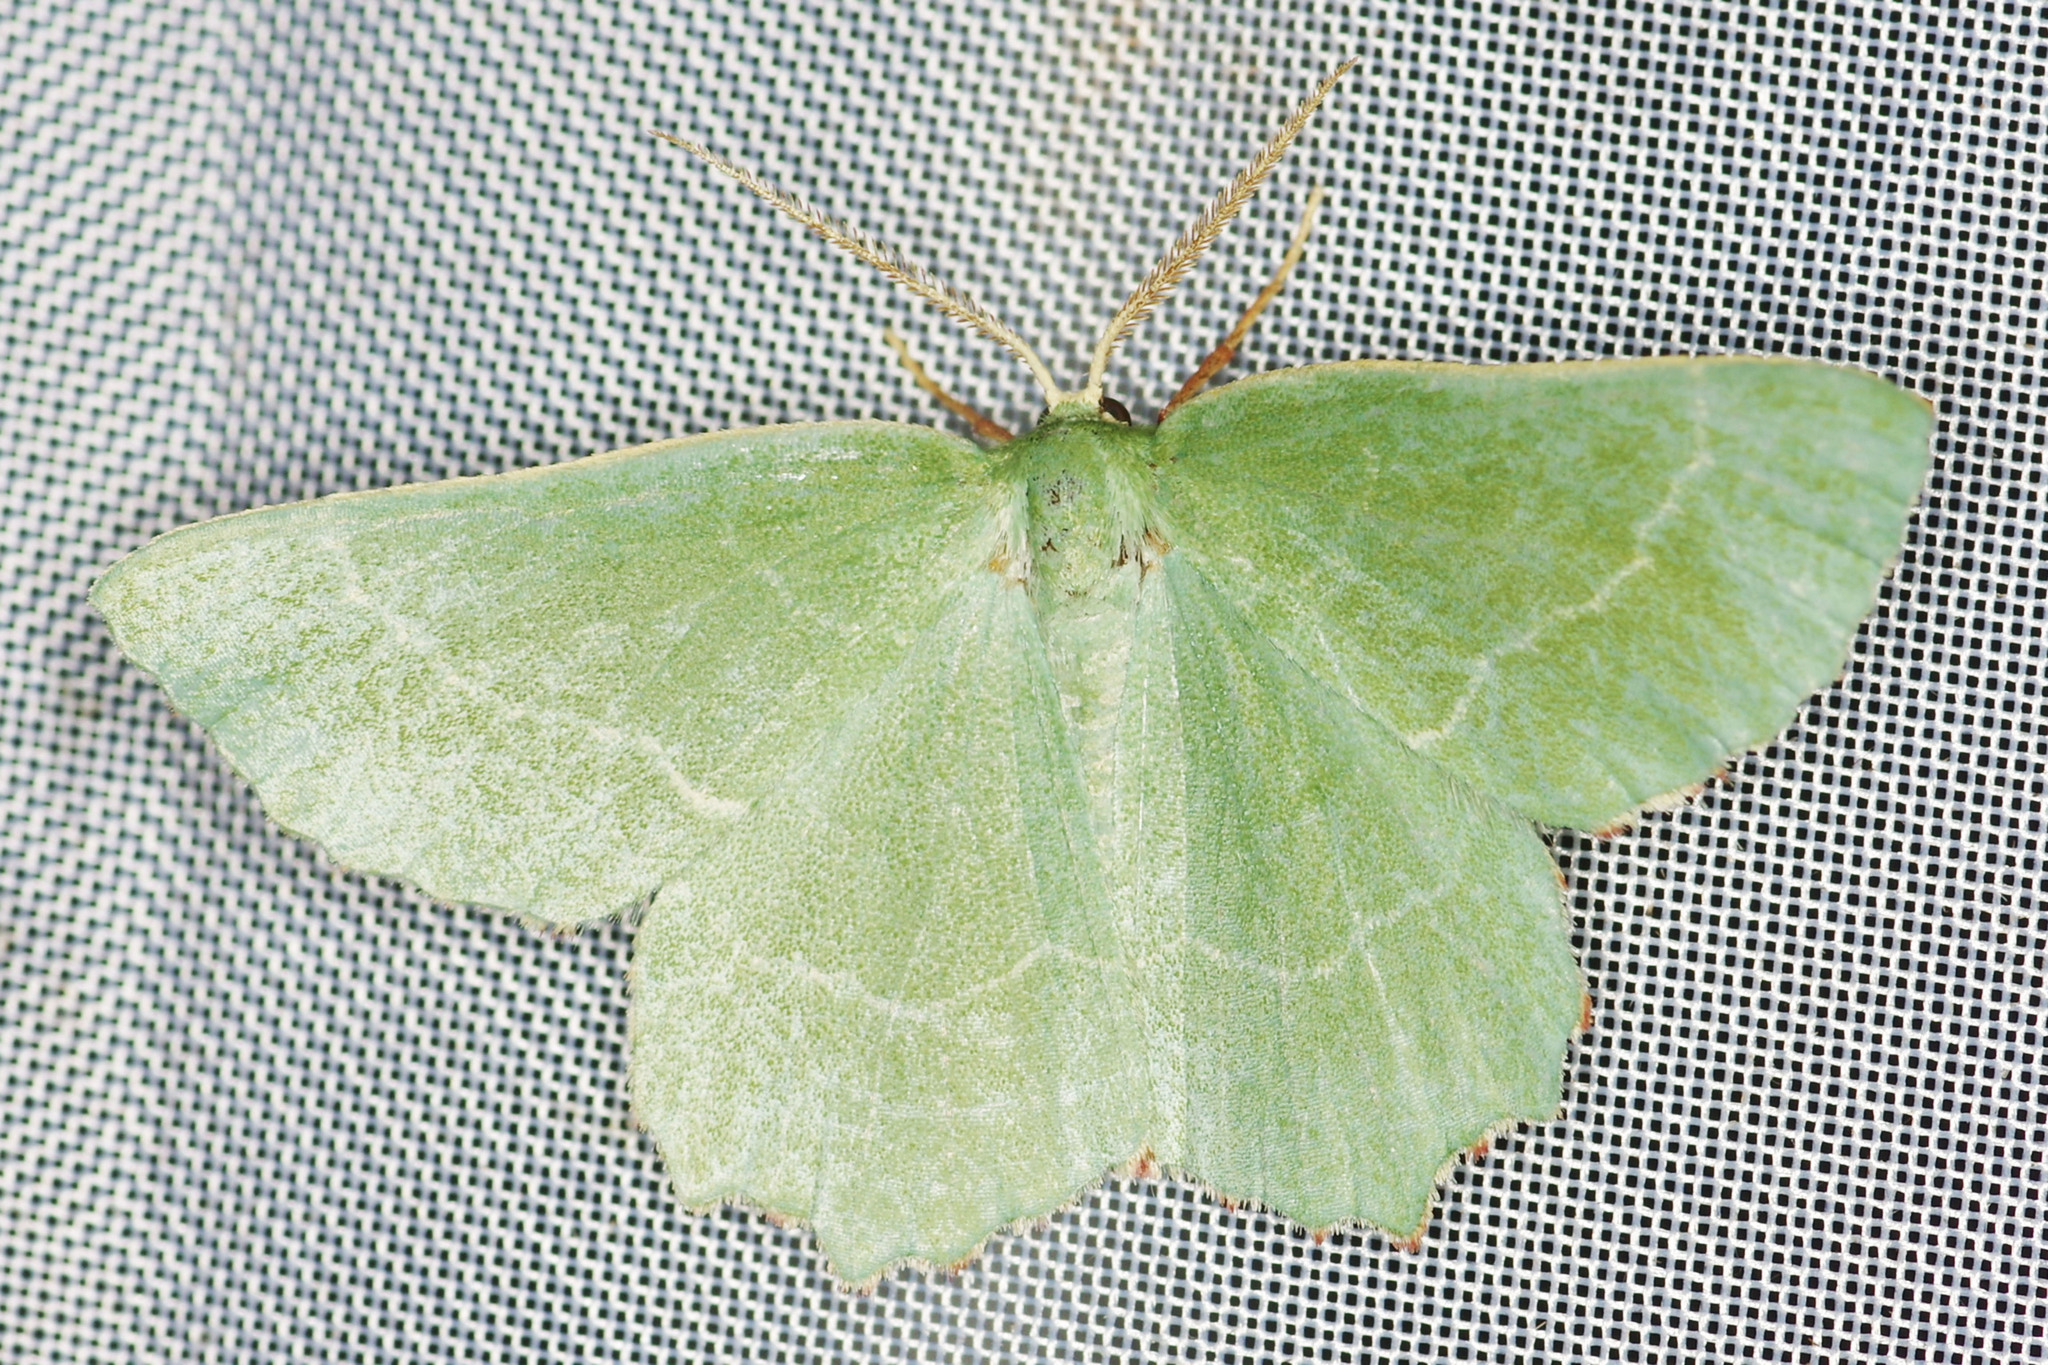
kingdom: Animalia
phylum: Arthropoda
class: Insecta
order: Lepidoptera
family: Geometridae
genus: Thalera
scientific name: Thalera fimbrialis
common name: Sussex emerald
